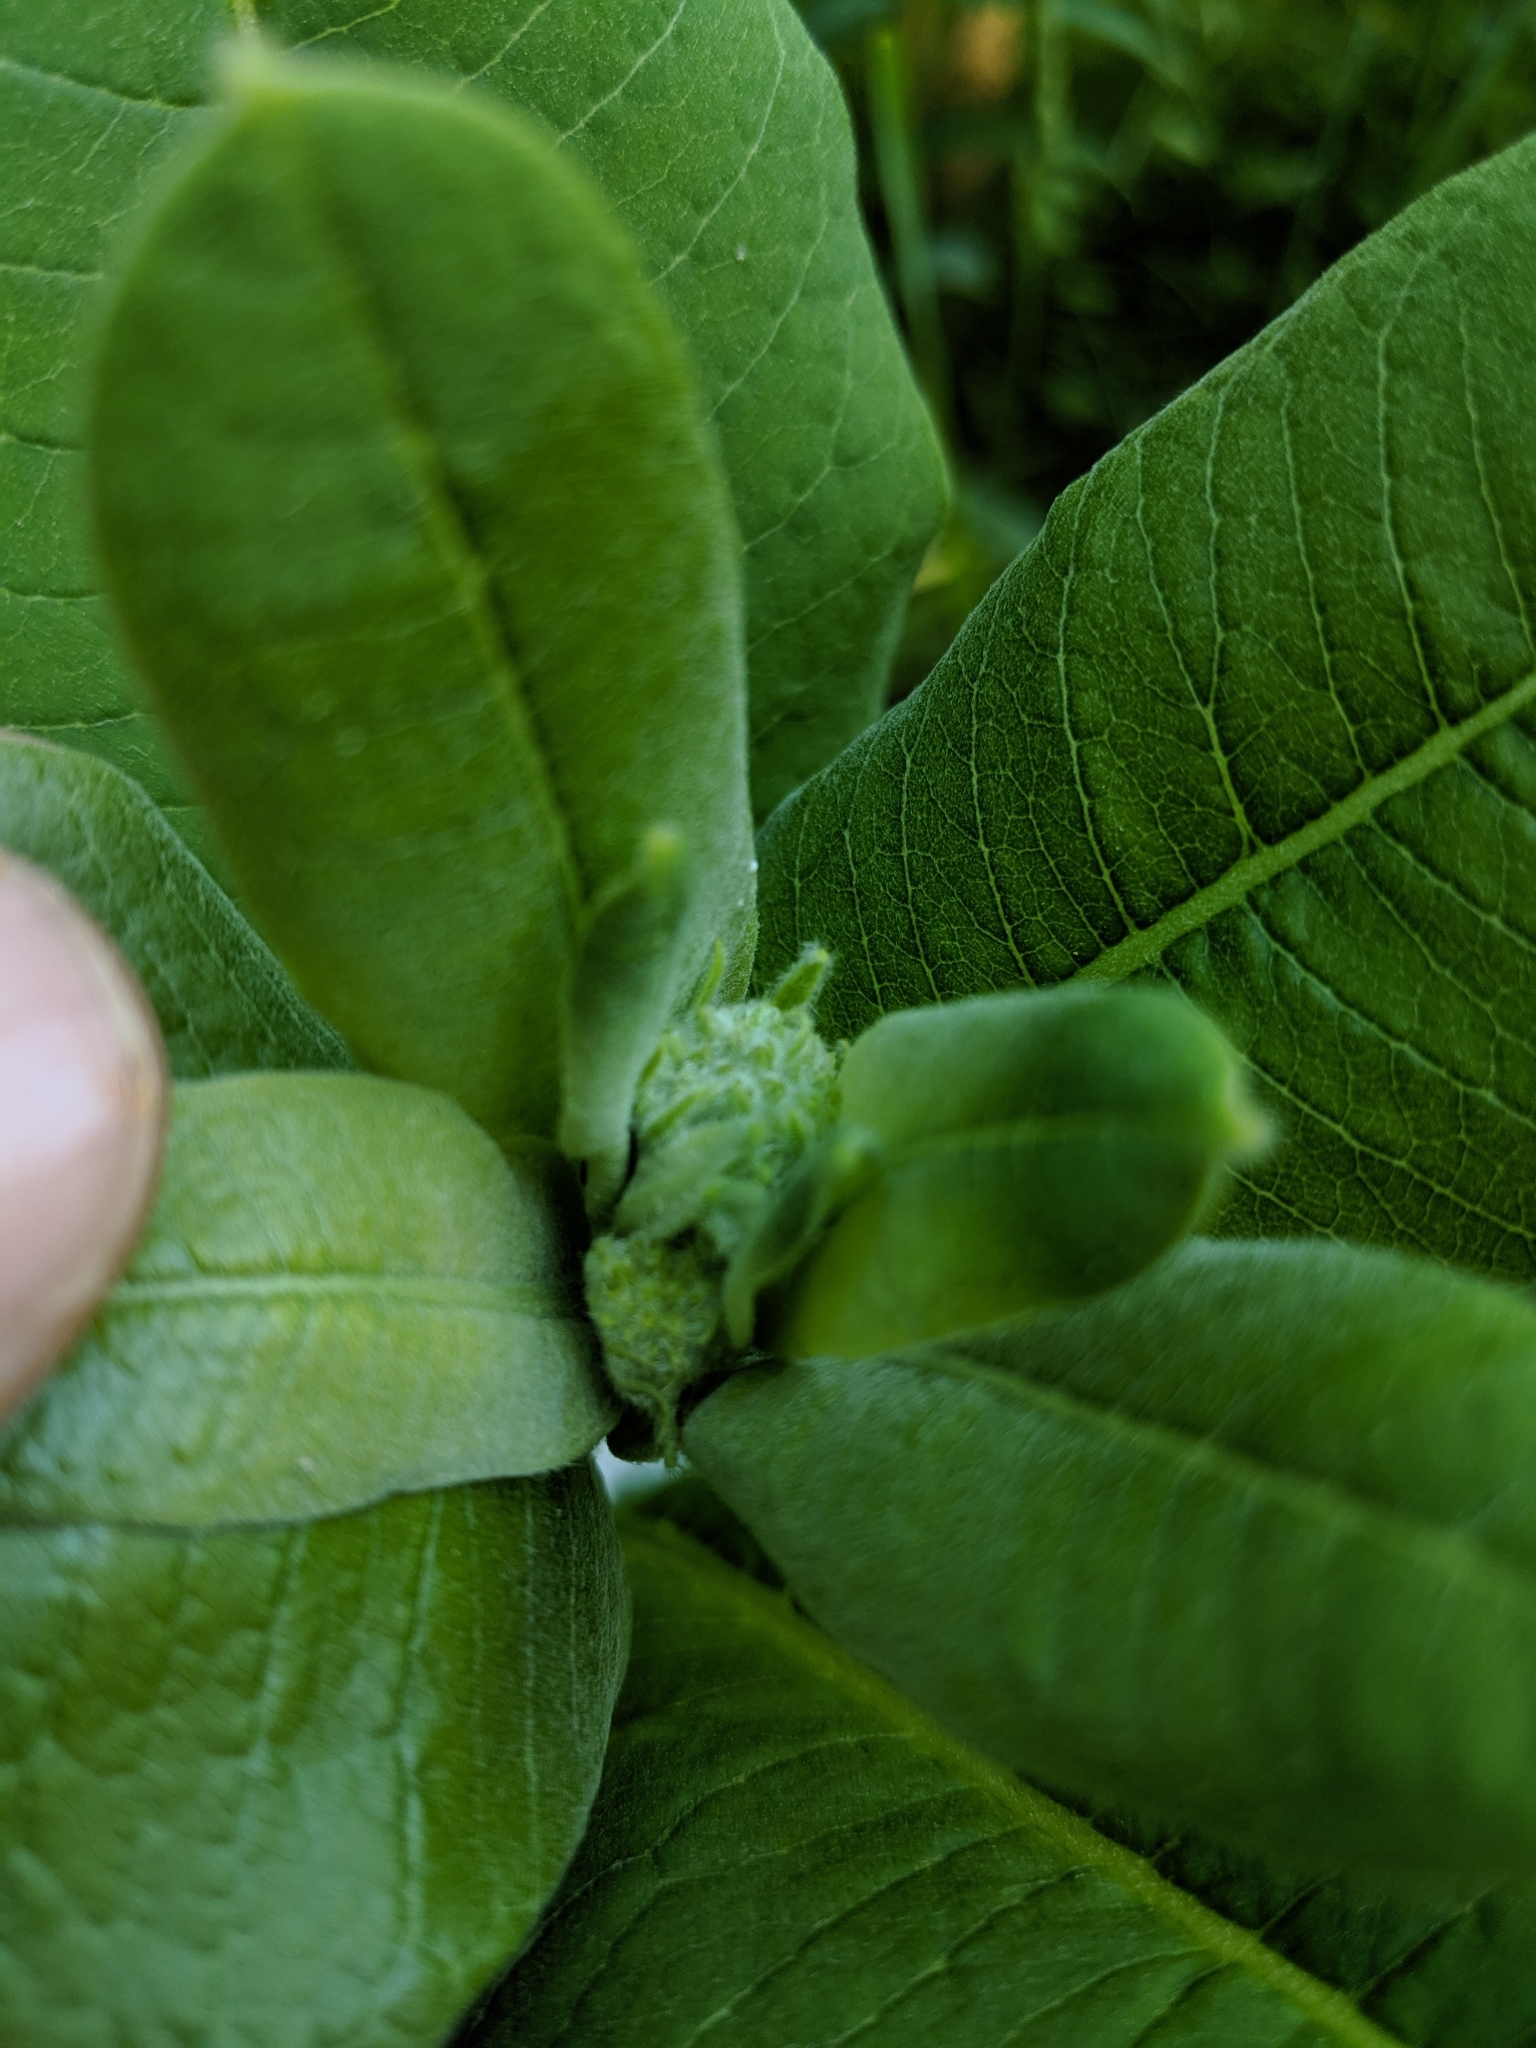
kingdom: Plantae
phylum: Tracheophyta
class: Magnoliopsida
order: Gentianales
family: Apocynaceae
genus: Asclepias
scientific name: Asclepias syriaca
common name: Common milkweed
